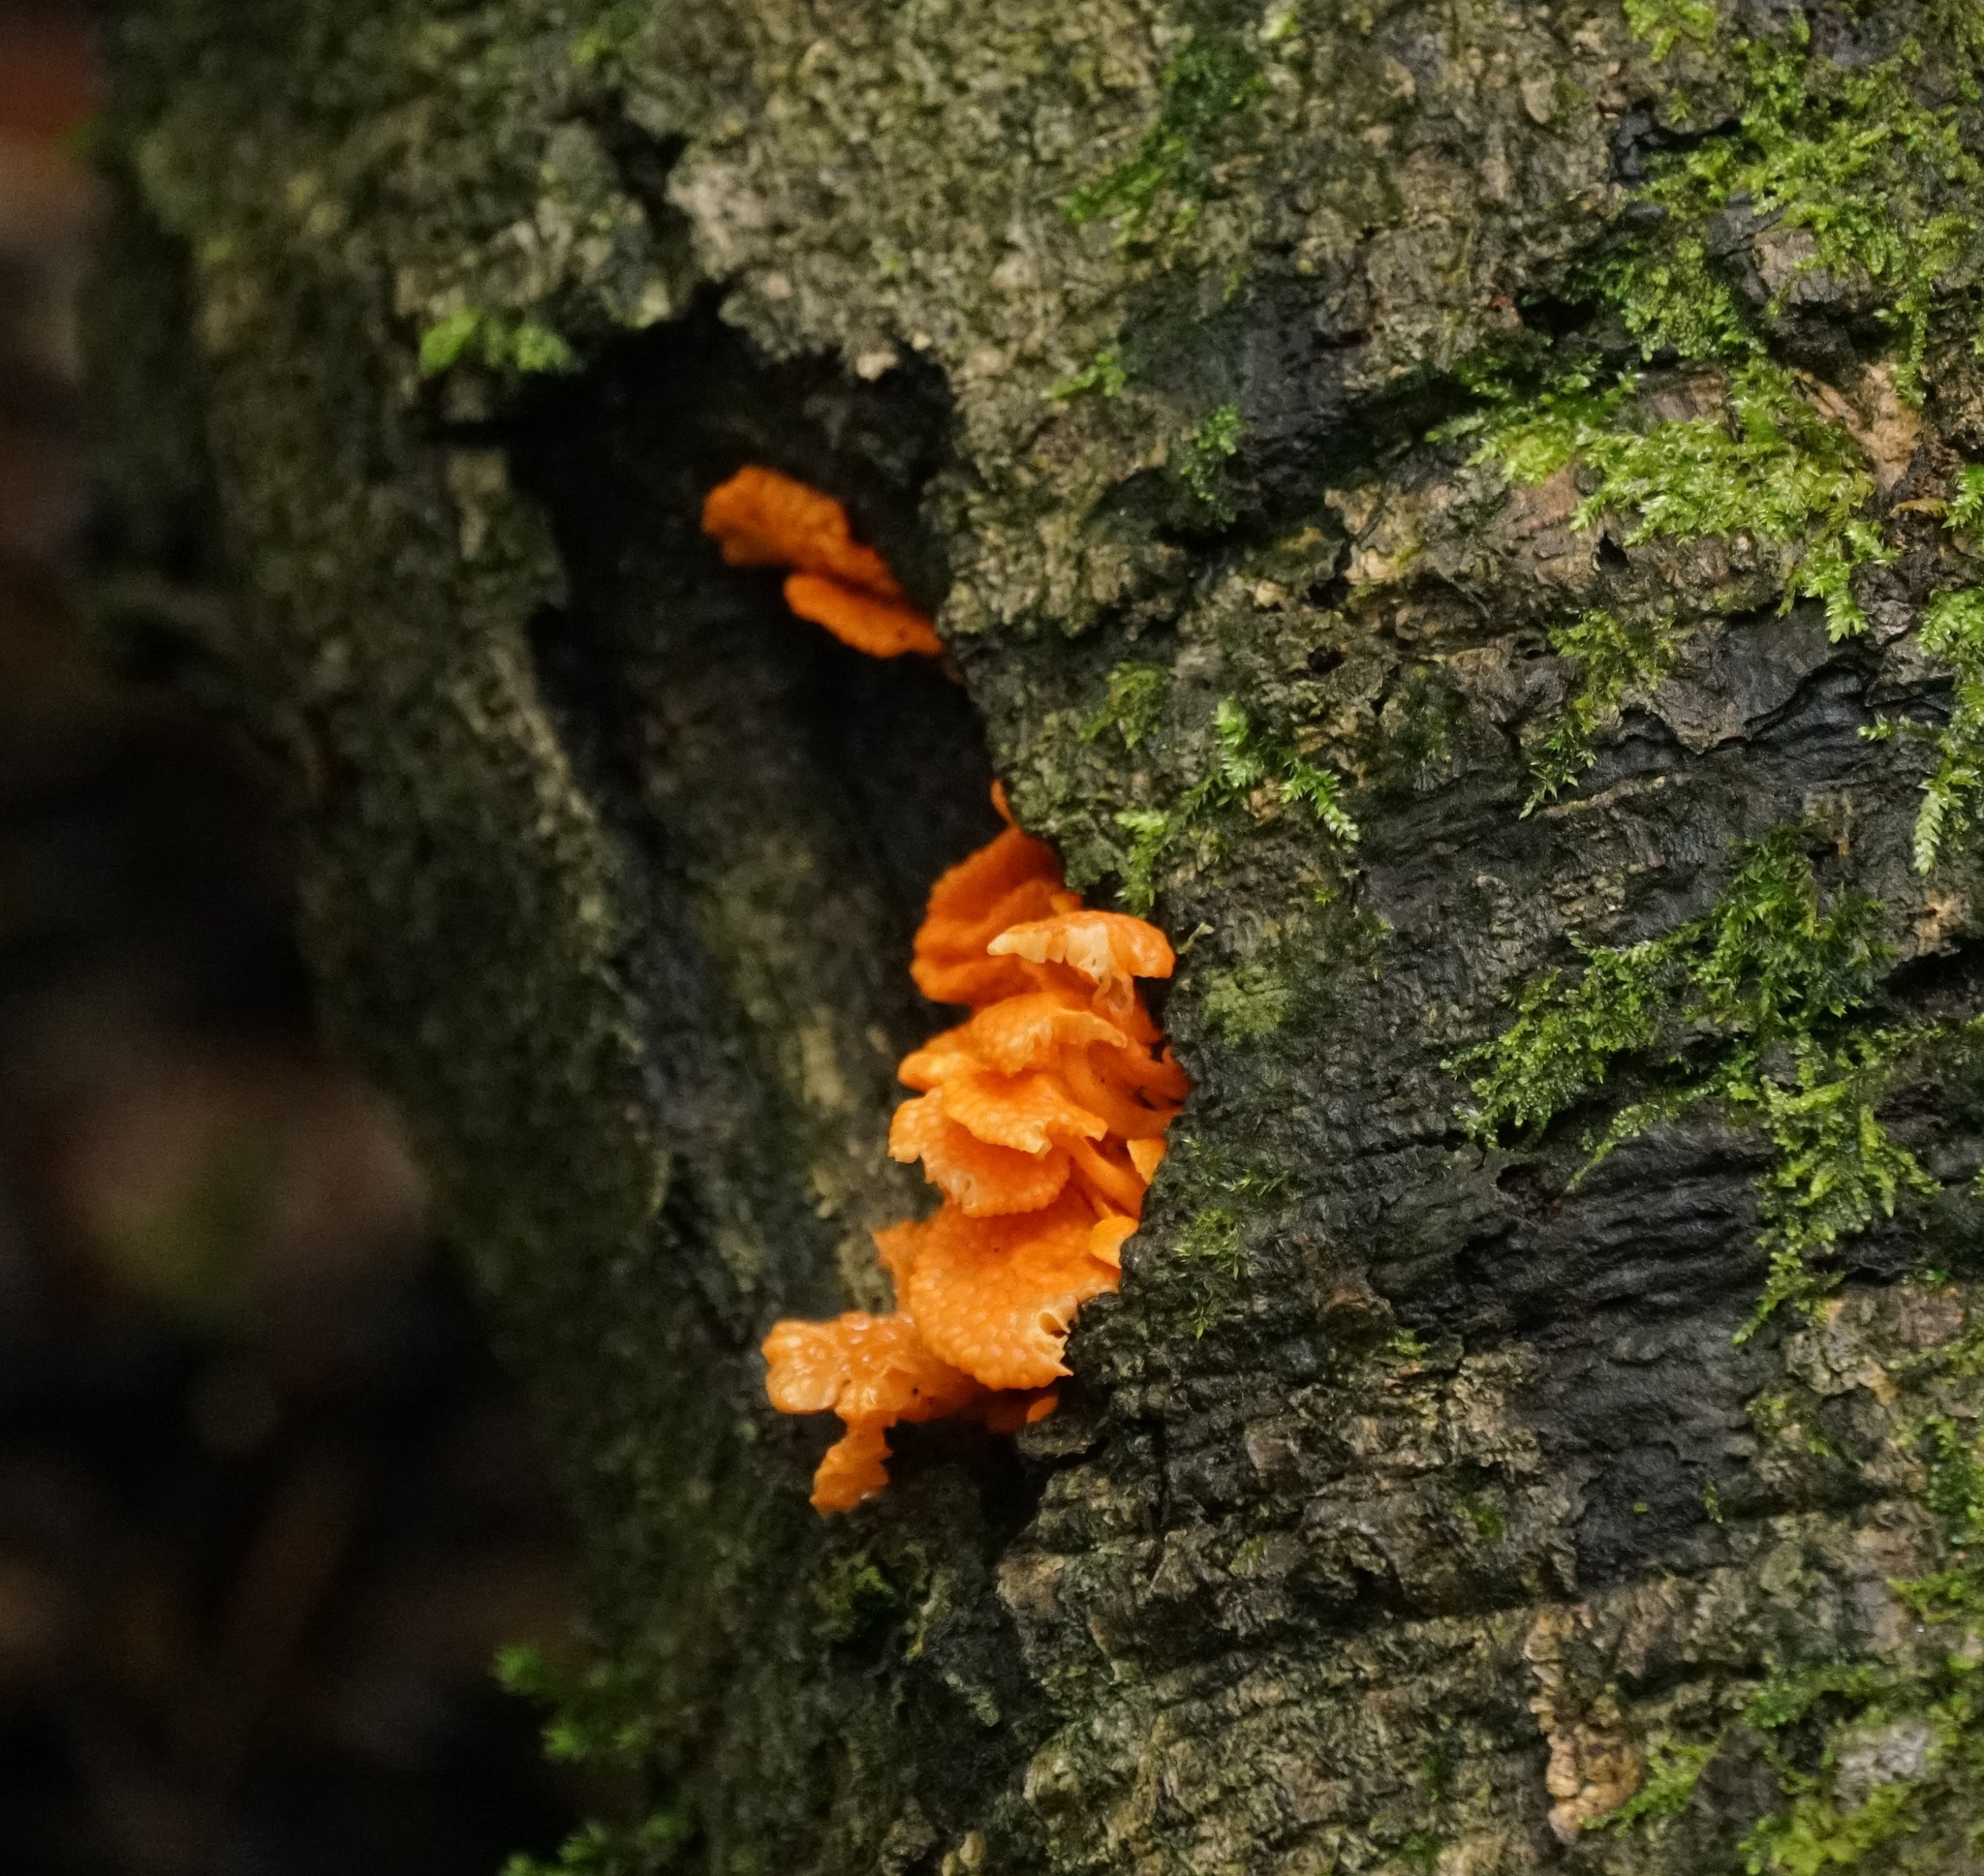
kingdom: Fungi
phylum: Basidiomycota
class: Agaricomycetes
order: Agaricales
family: Mycenaceae
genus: Favolaschia
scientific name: Favolaschia claudopus
